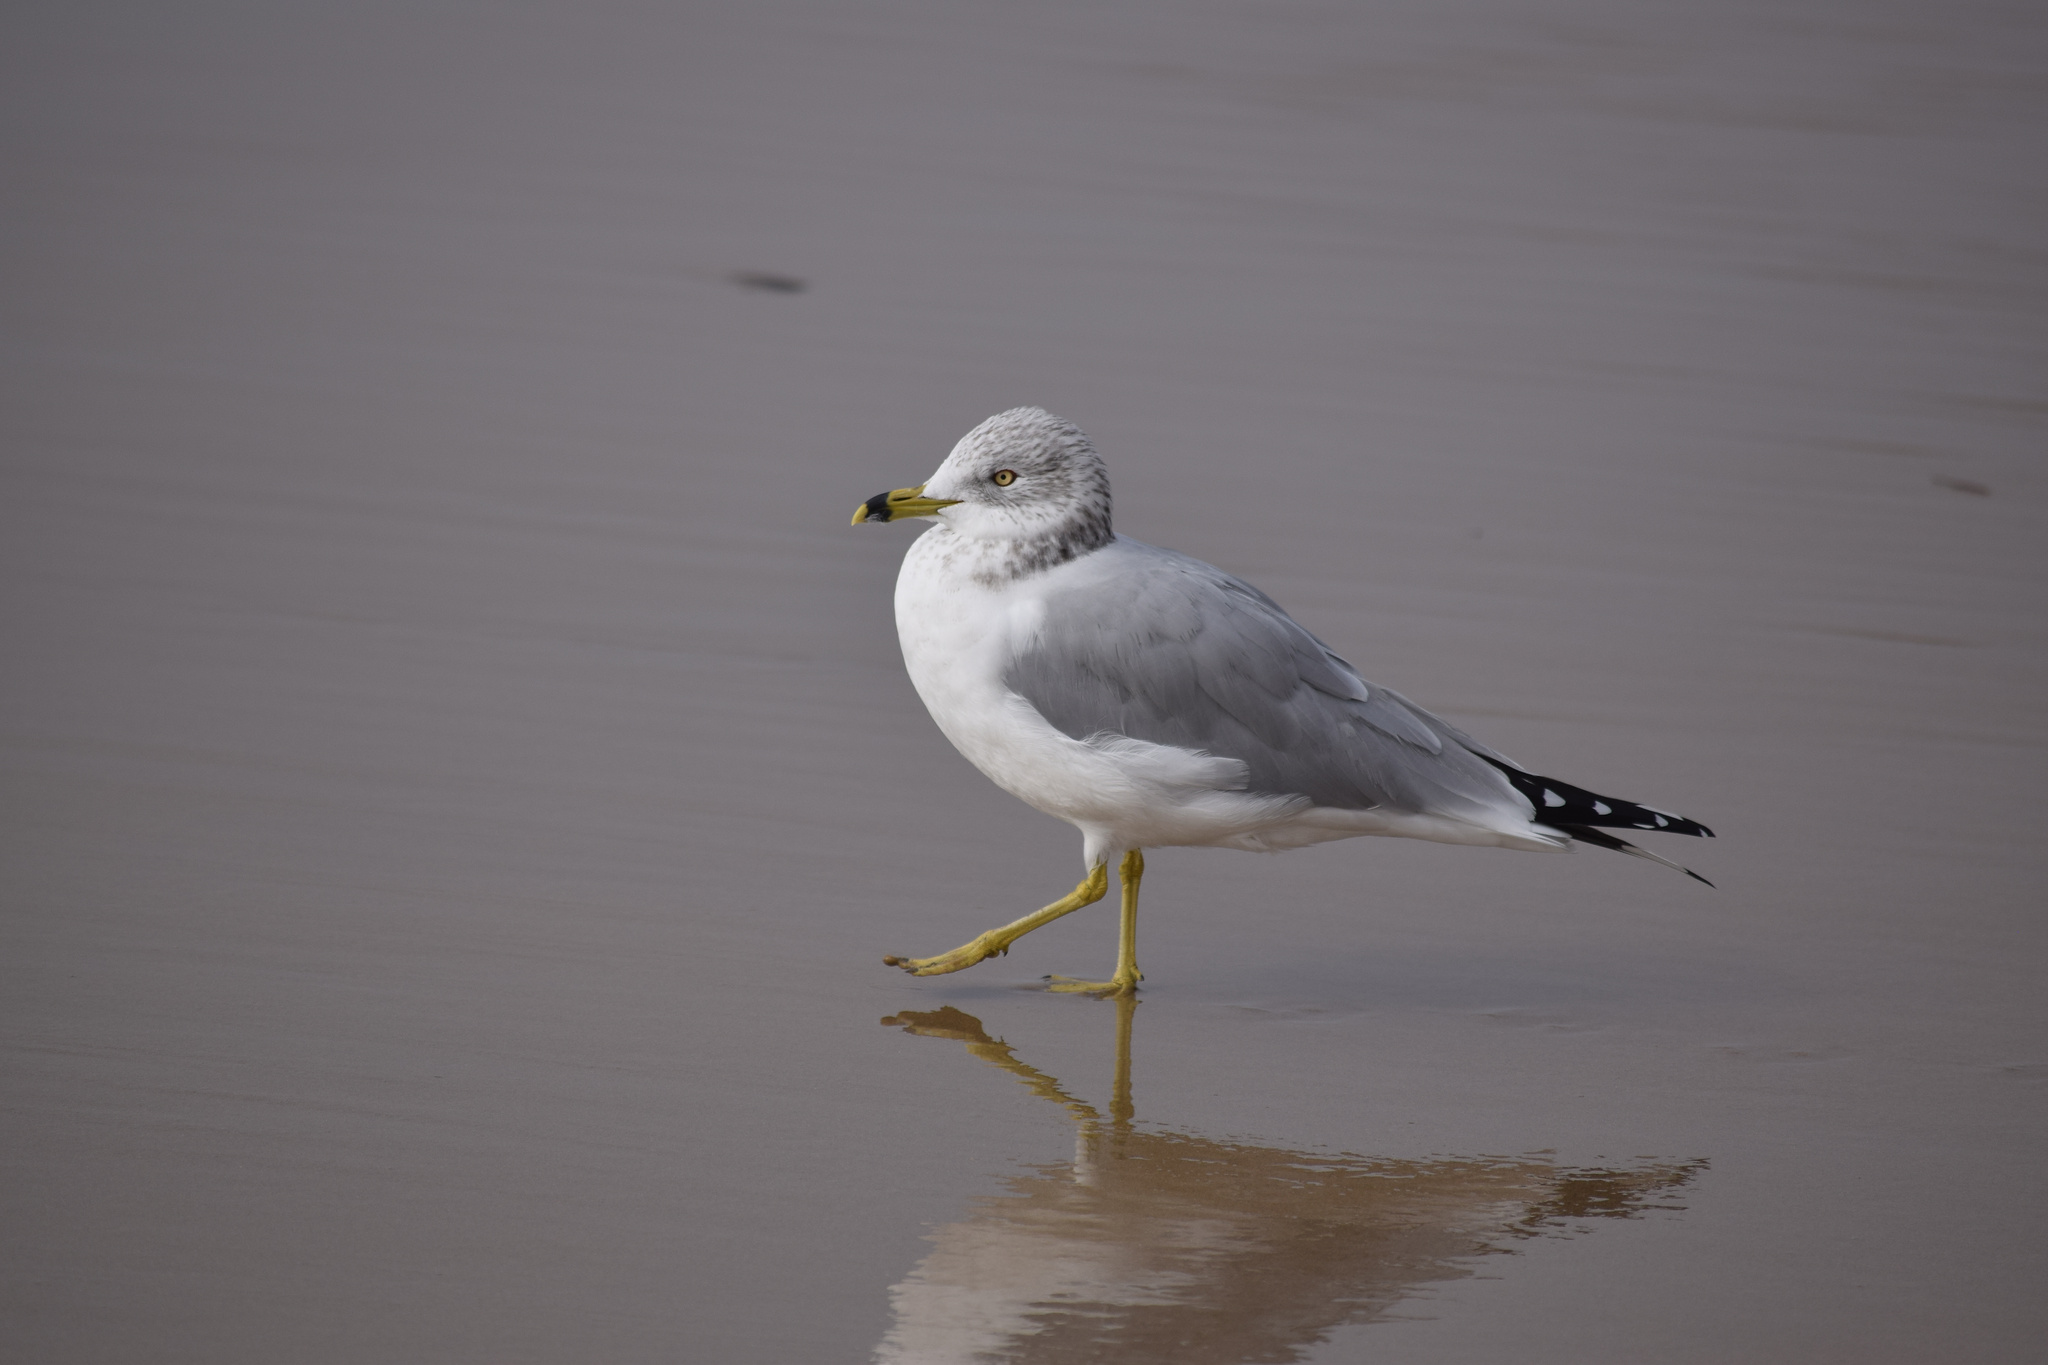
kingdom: Animalia
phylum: Chordata
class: Aves
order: Charadriiformes
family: Laridae
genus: Larus
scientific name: Larus delawarensis
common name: Ring-billed gull
